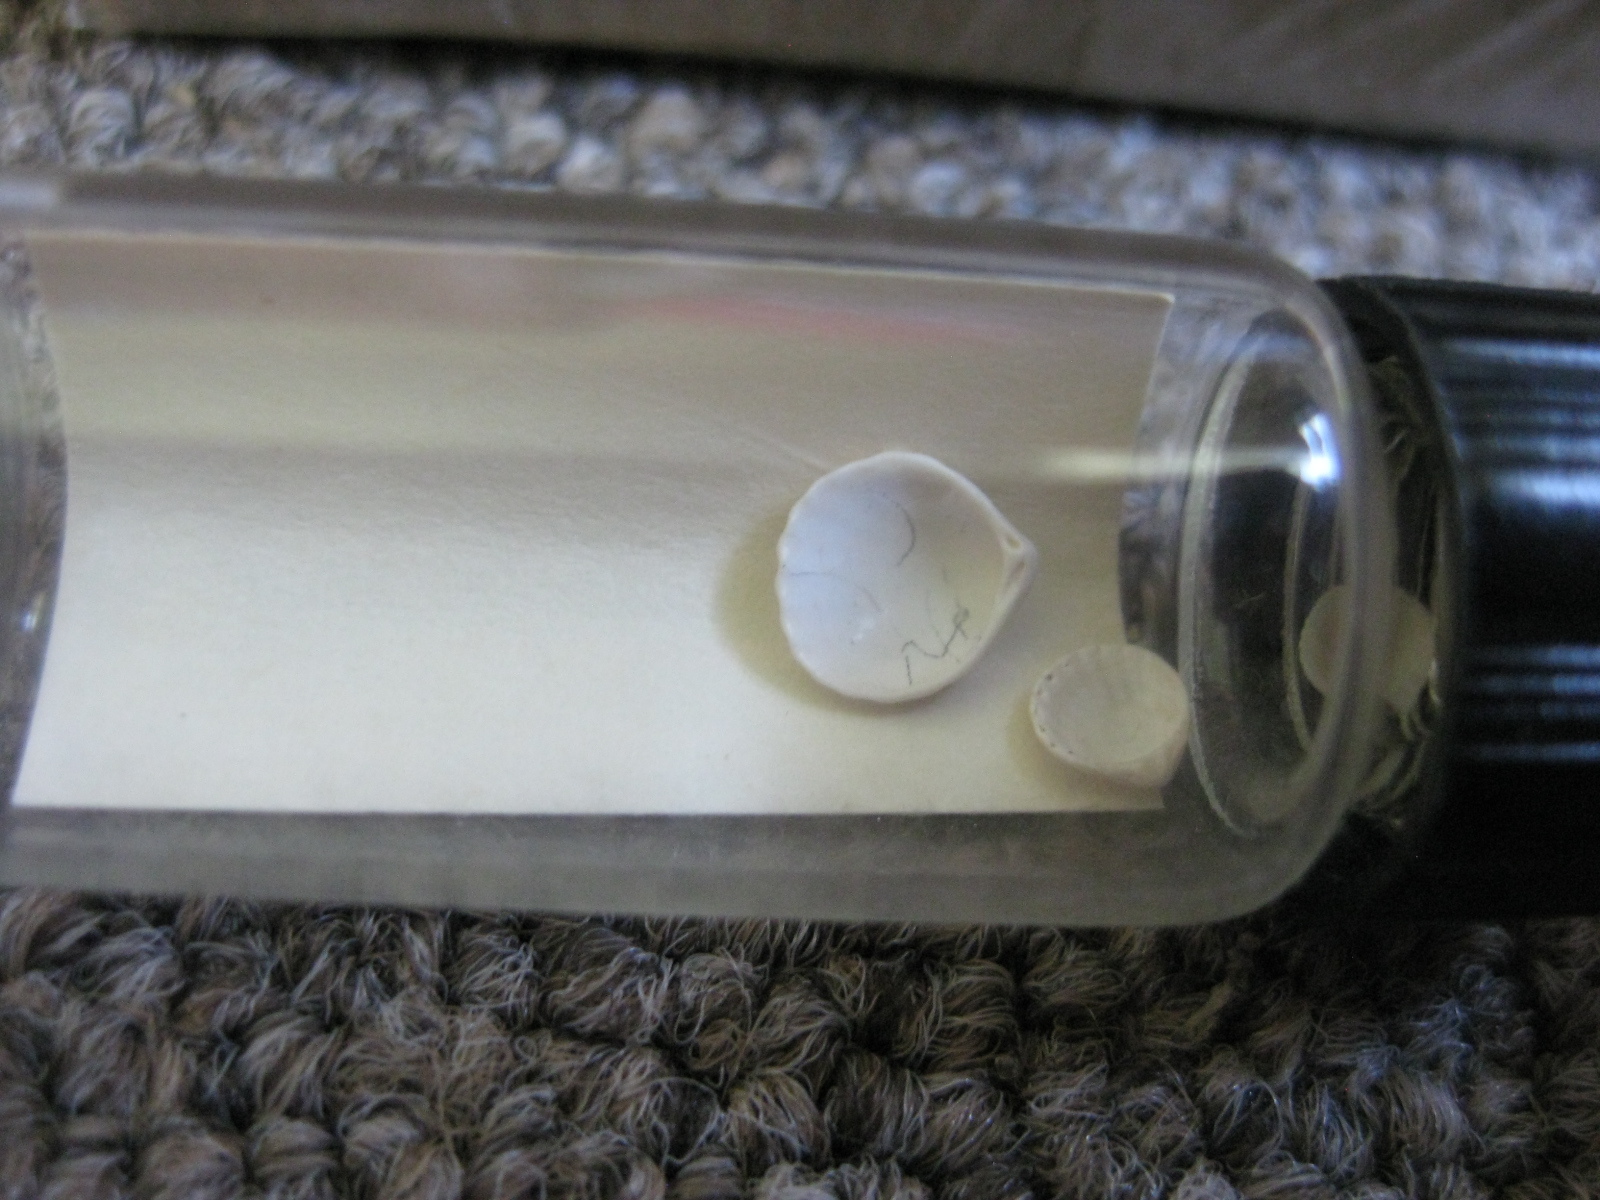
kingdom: Animalia
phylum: Mollusca
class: Bivalvia
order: Carditida
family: Carditidae
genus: Pleuromeris
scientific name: Pleuromeris zelandica
